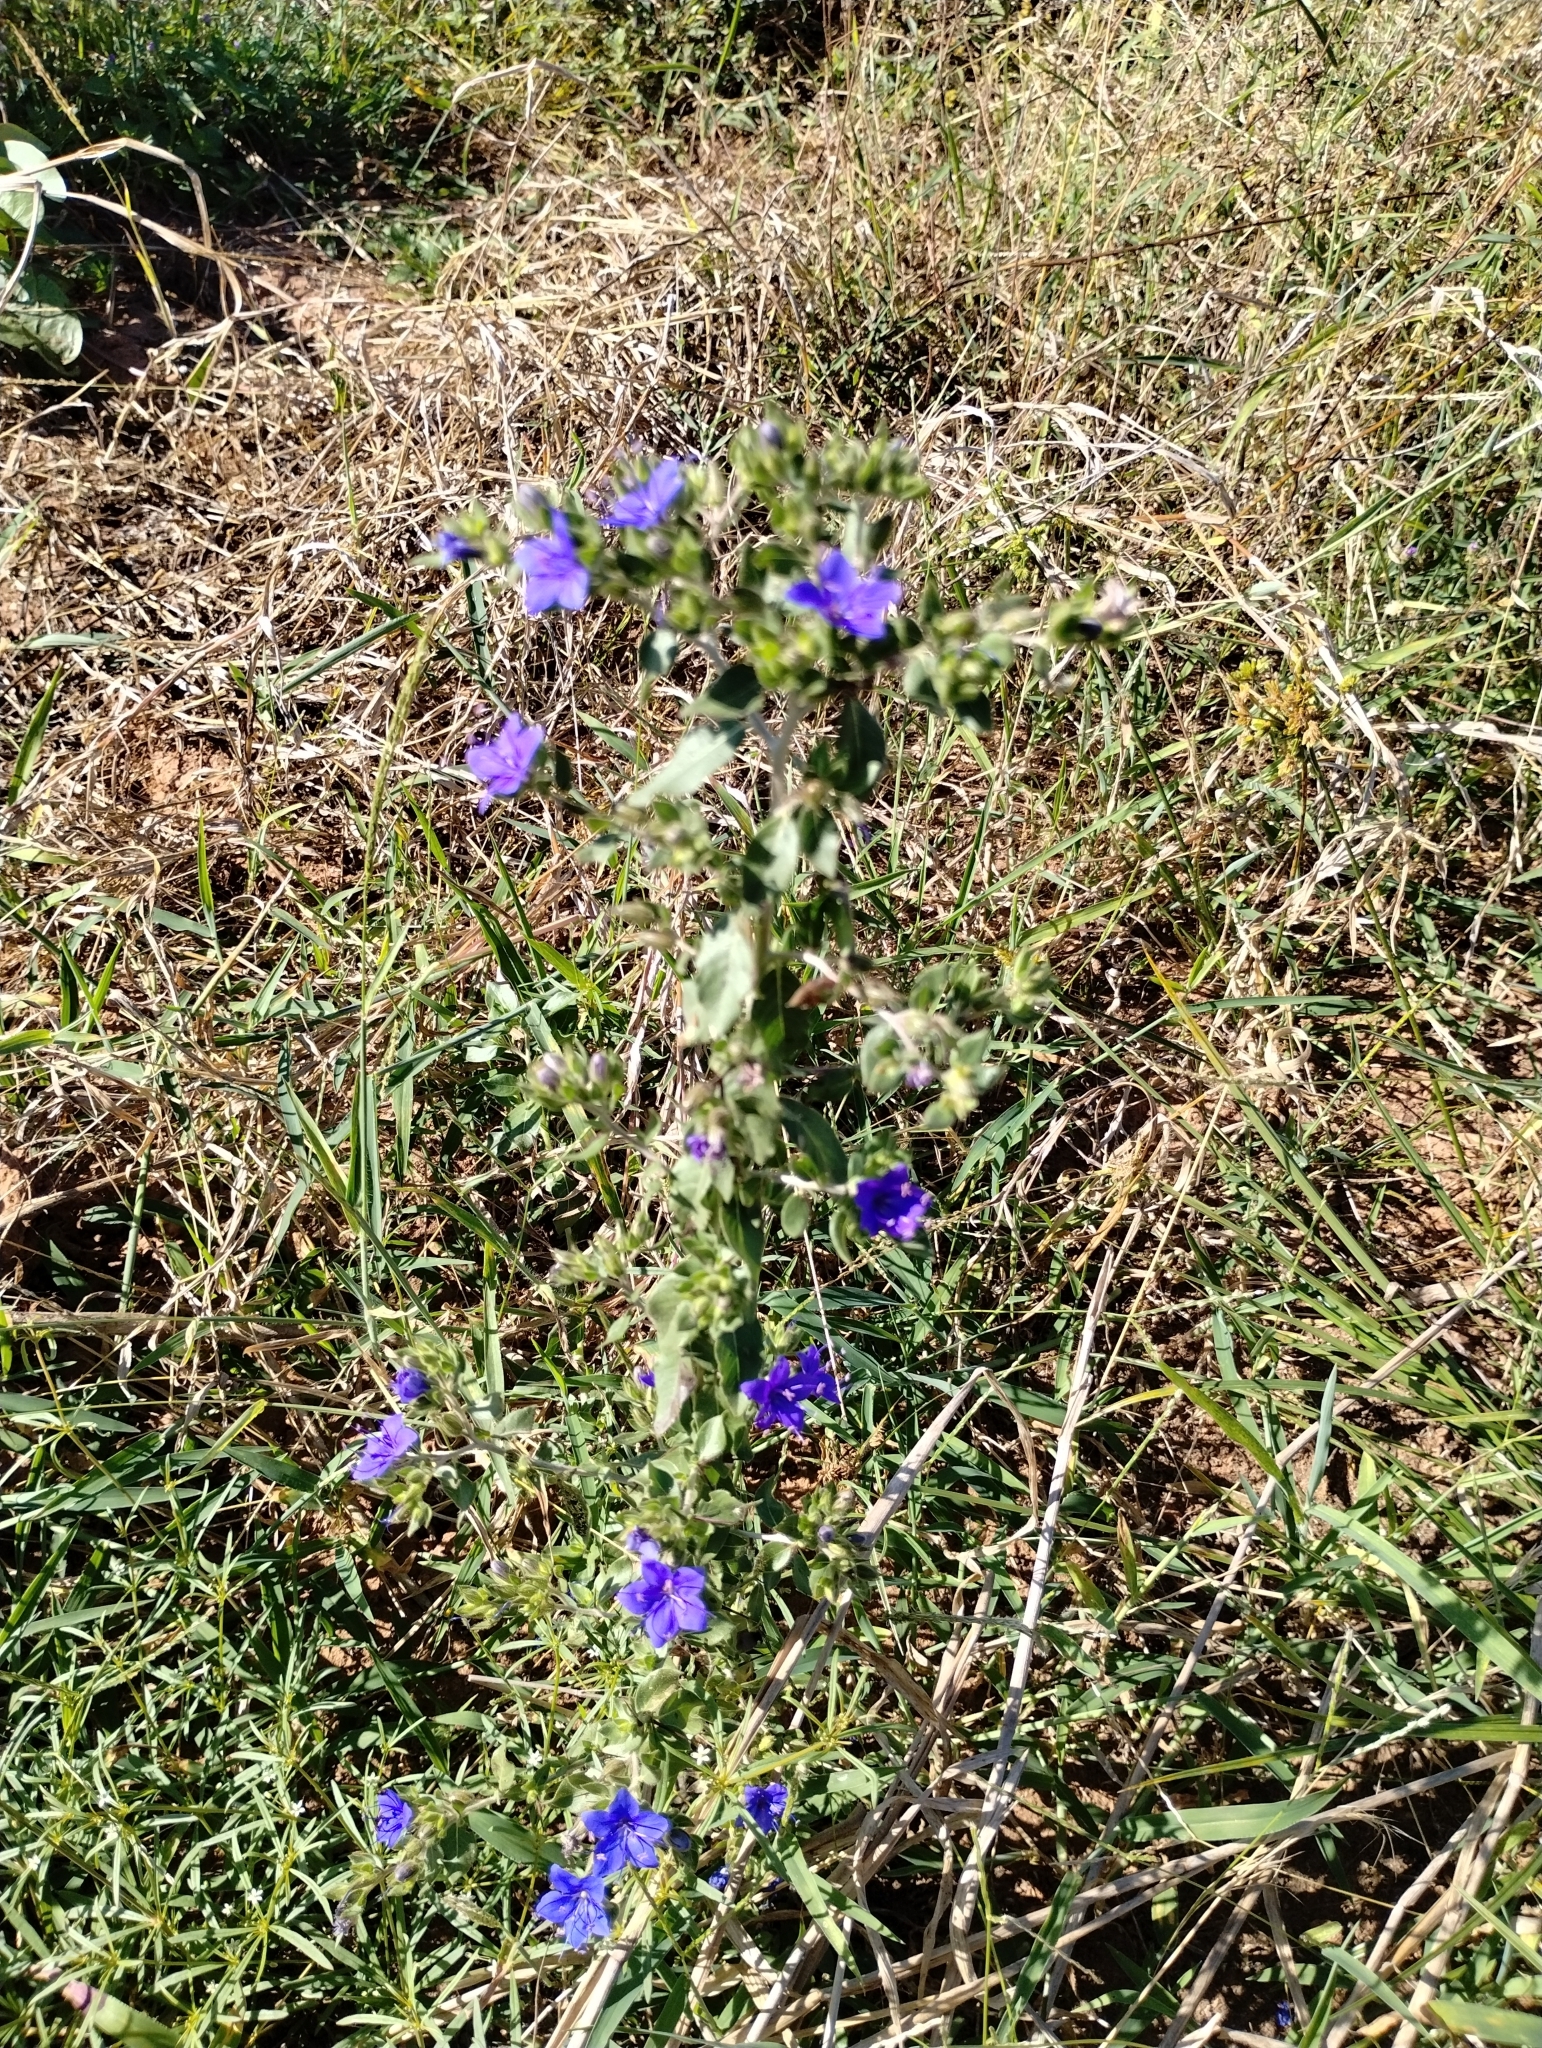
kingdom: Plantae
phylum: Tracheophyta
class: Magnoliopsida
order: Solanales
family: Hydroleaceae
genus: Hydrolea
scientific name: Hydrolea spinosa
